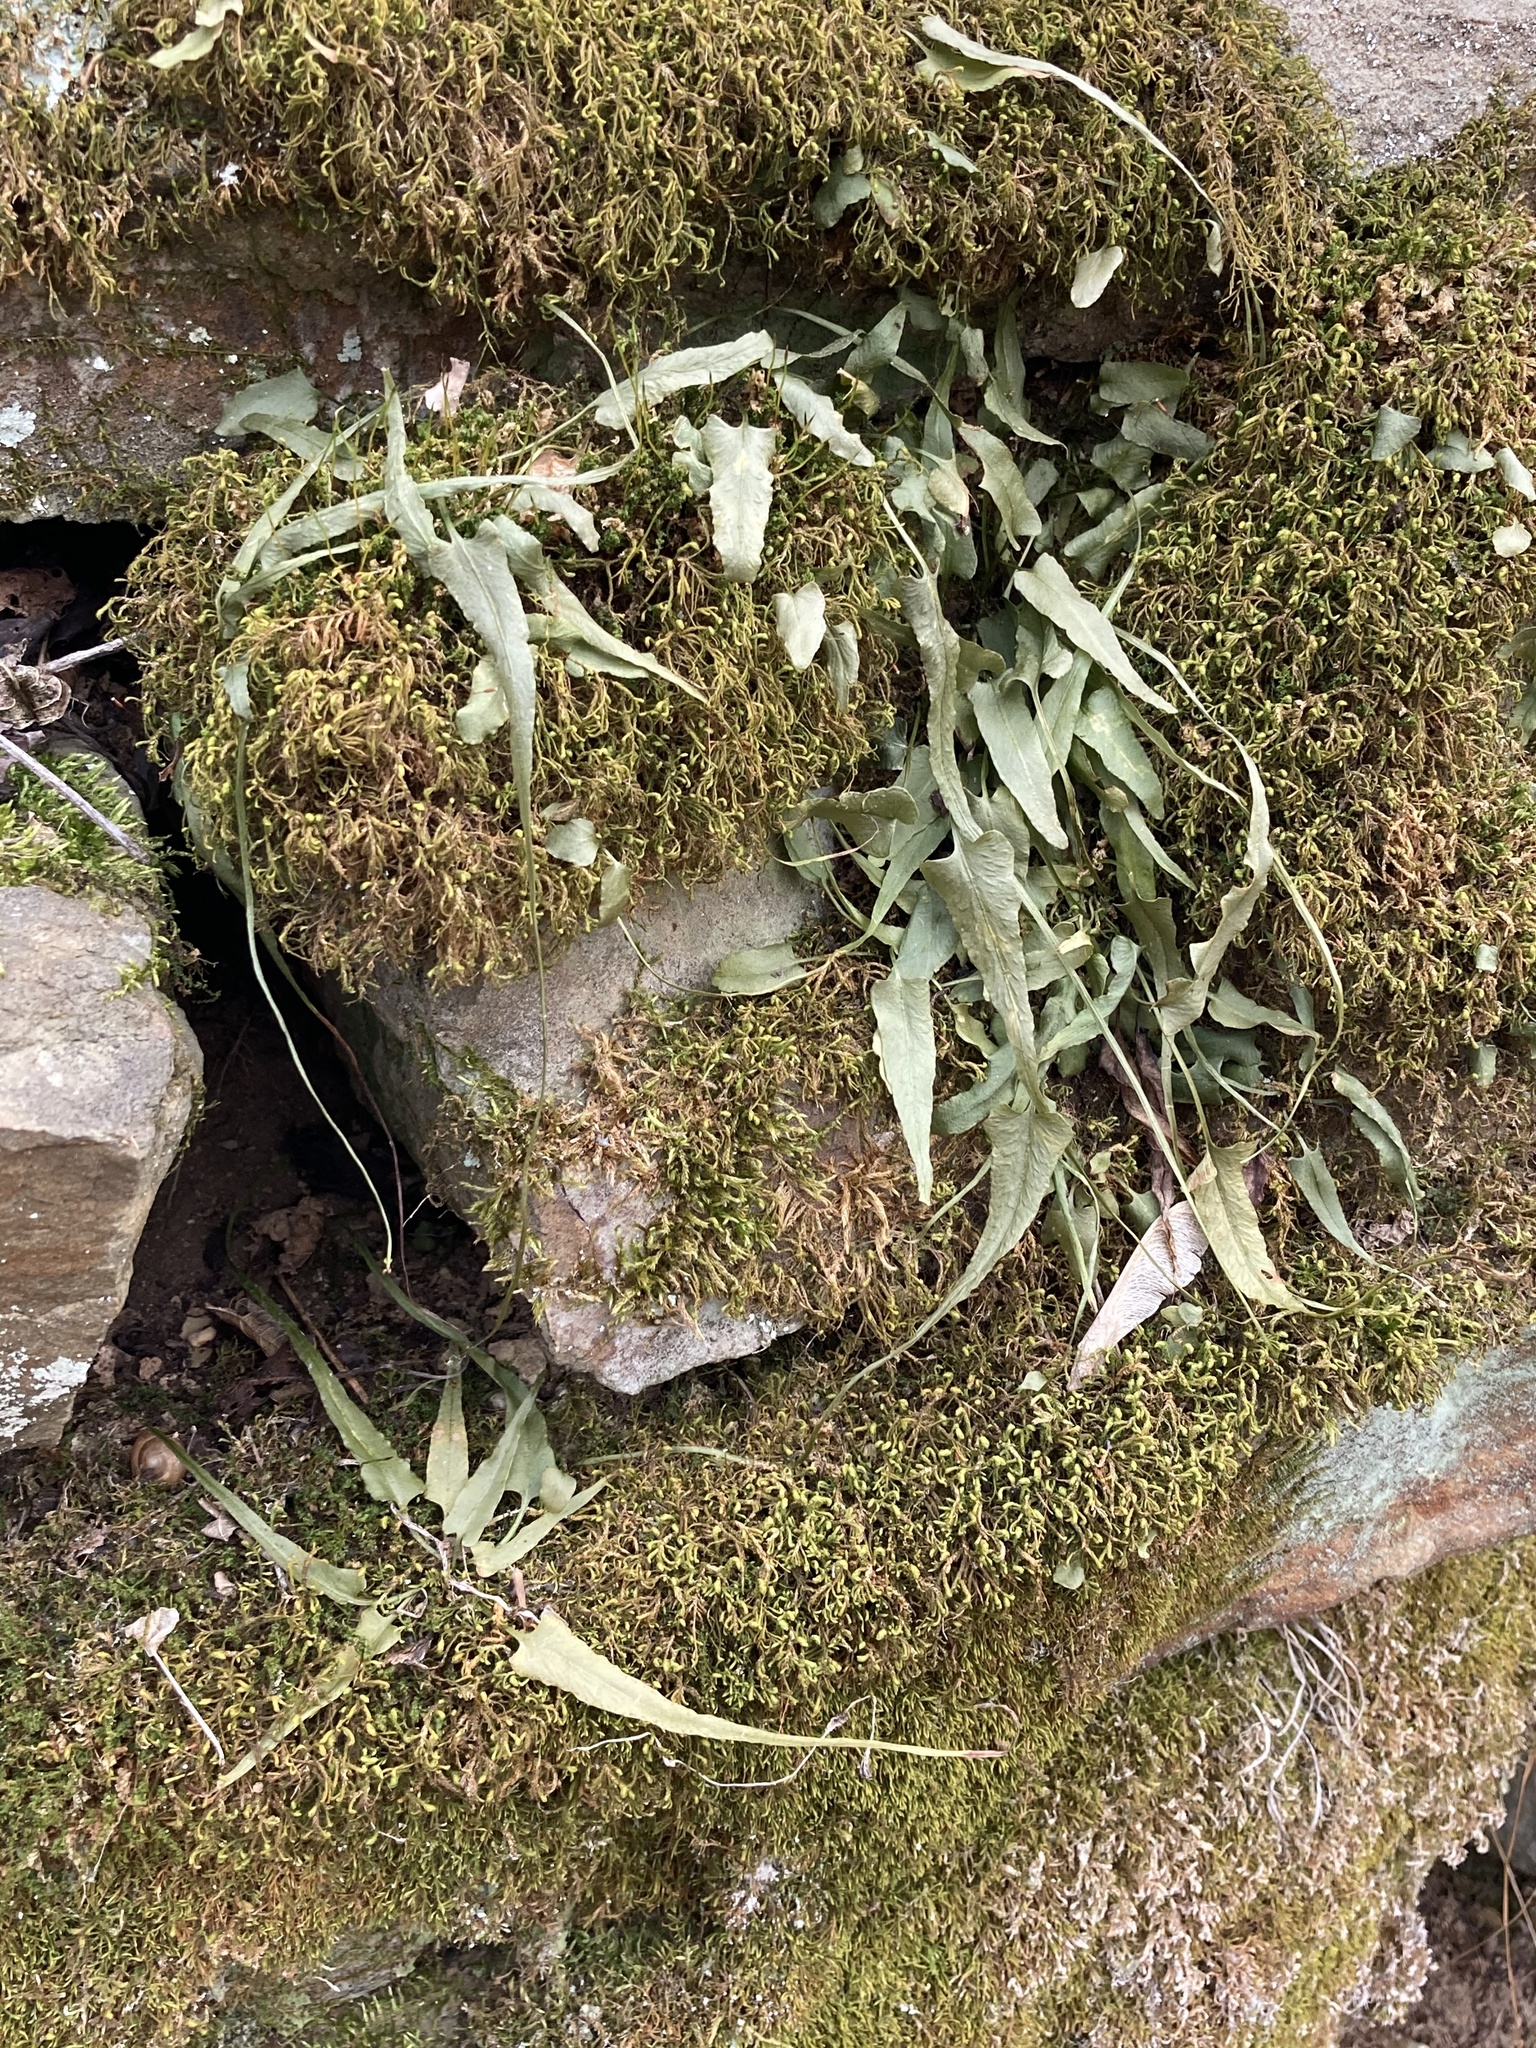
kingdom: Plantae
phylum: Tracheophyta
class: Polypodiopsida
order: Polypodiales
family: Aspleniaceae
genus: Asplenium
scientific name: Asplenium rhizophyllum
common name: Walking fern
